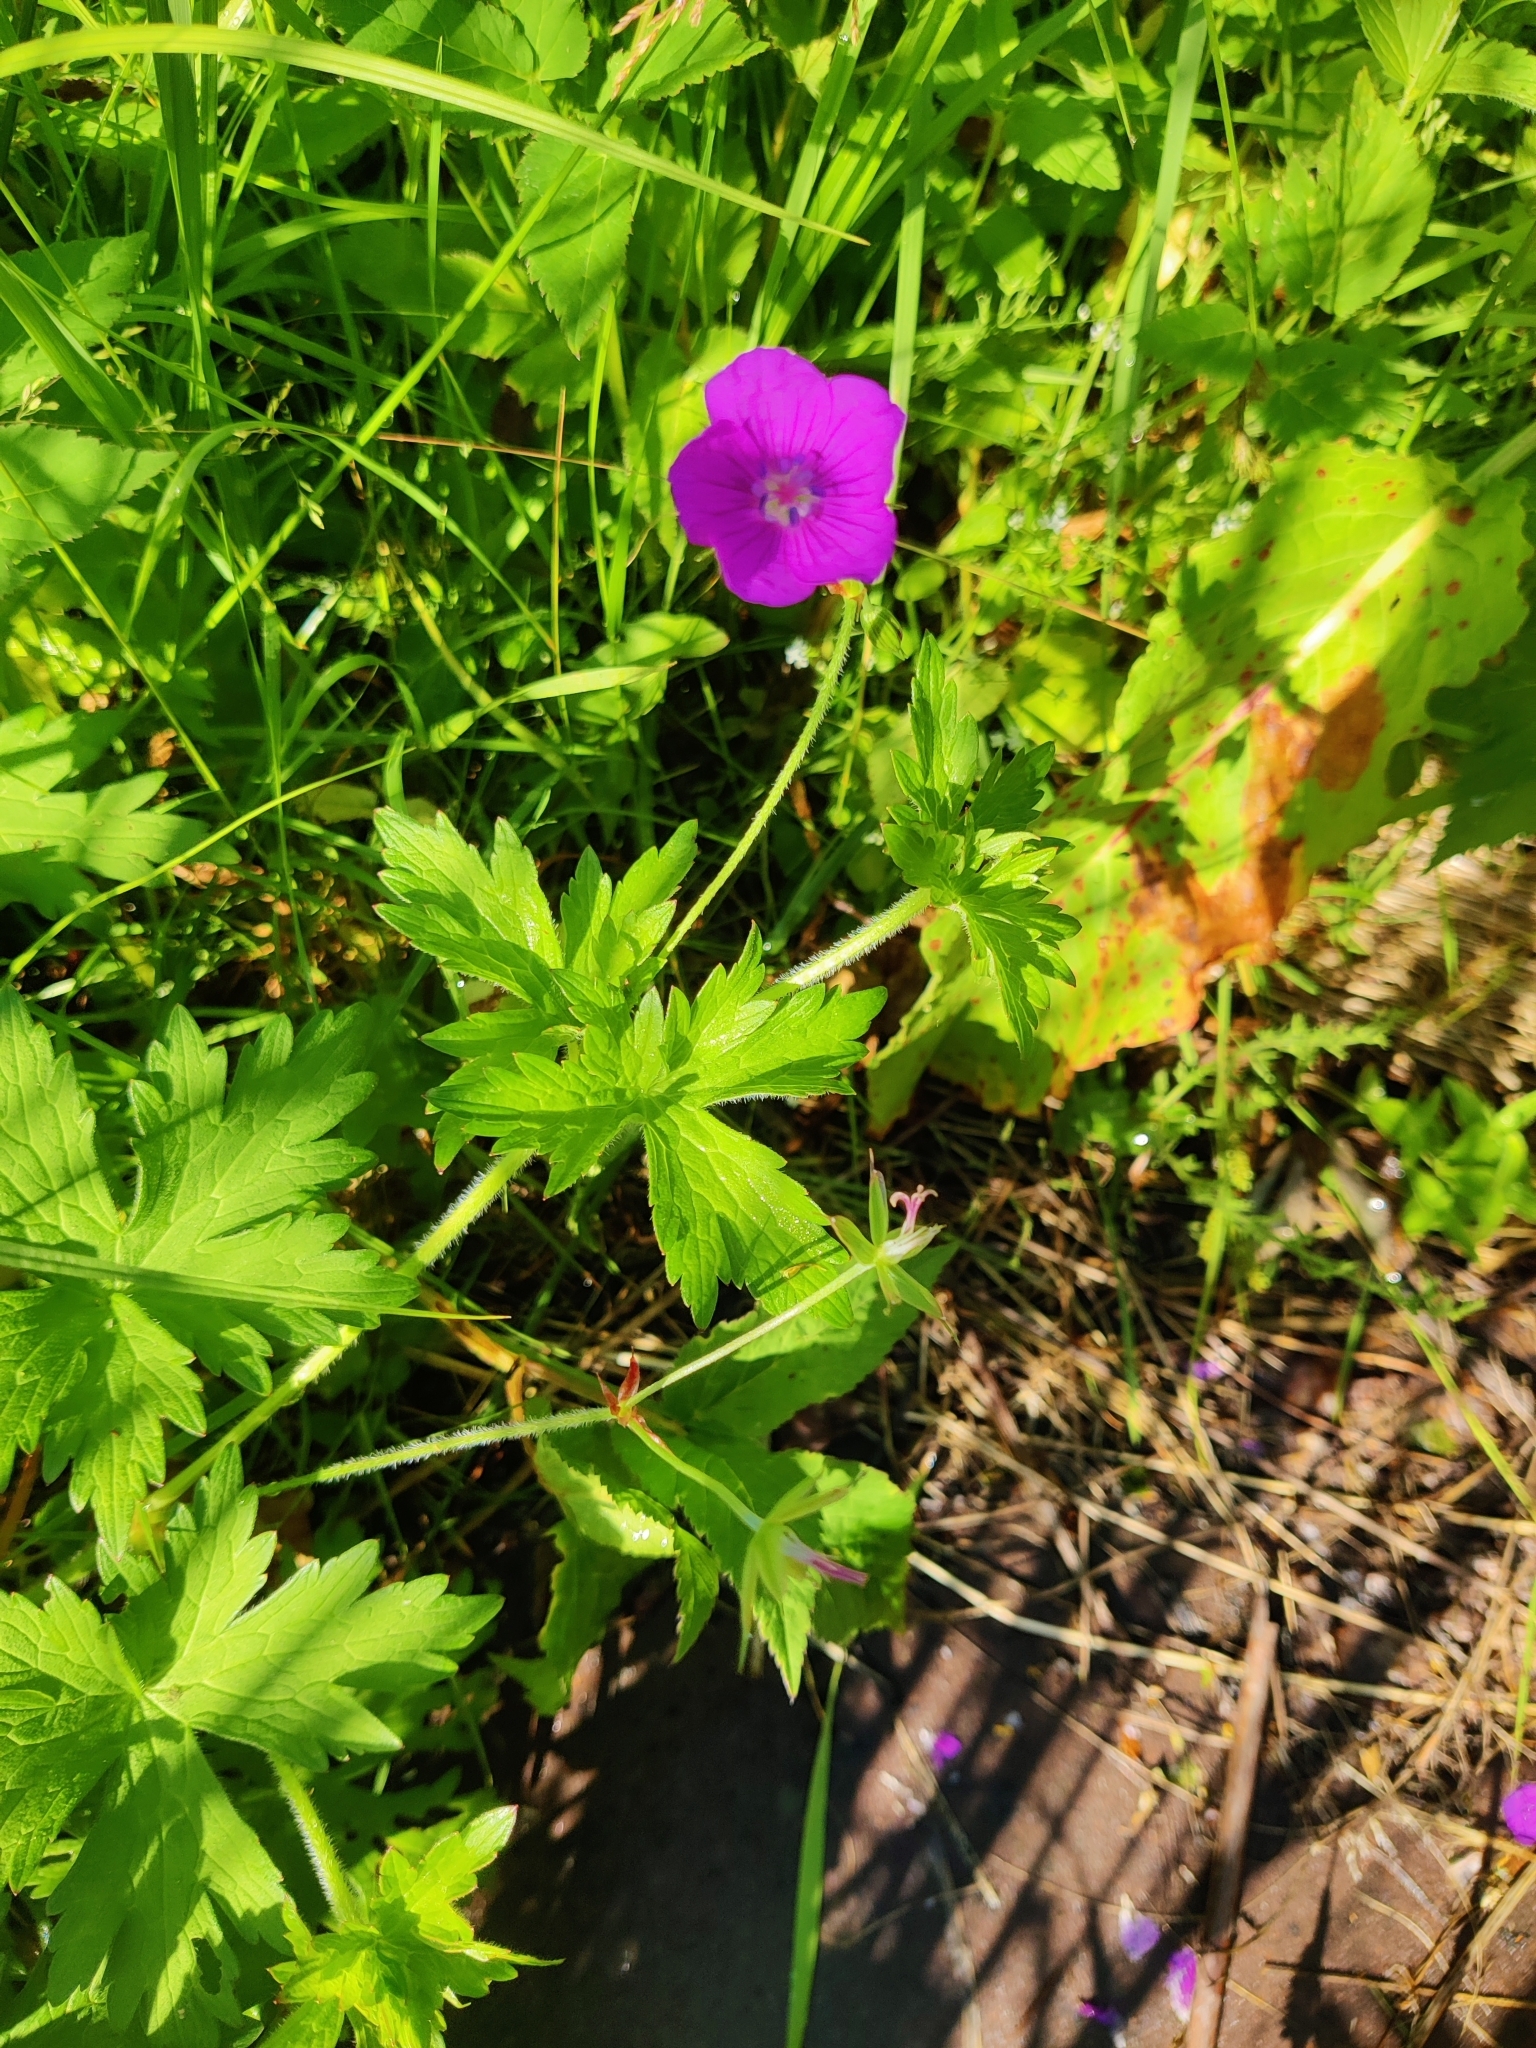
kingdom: Plantae
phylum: Tracheophyta
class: Magnoliopsida
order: Geraniales
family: Geraniaceae
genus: Geranium
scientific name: Geranium palustre
